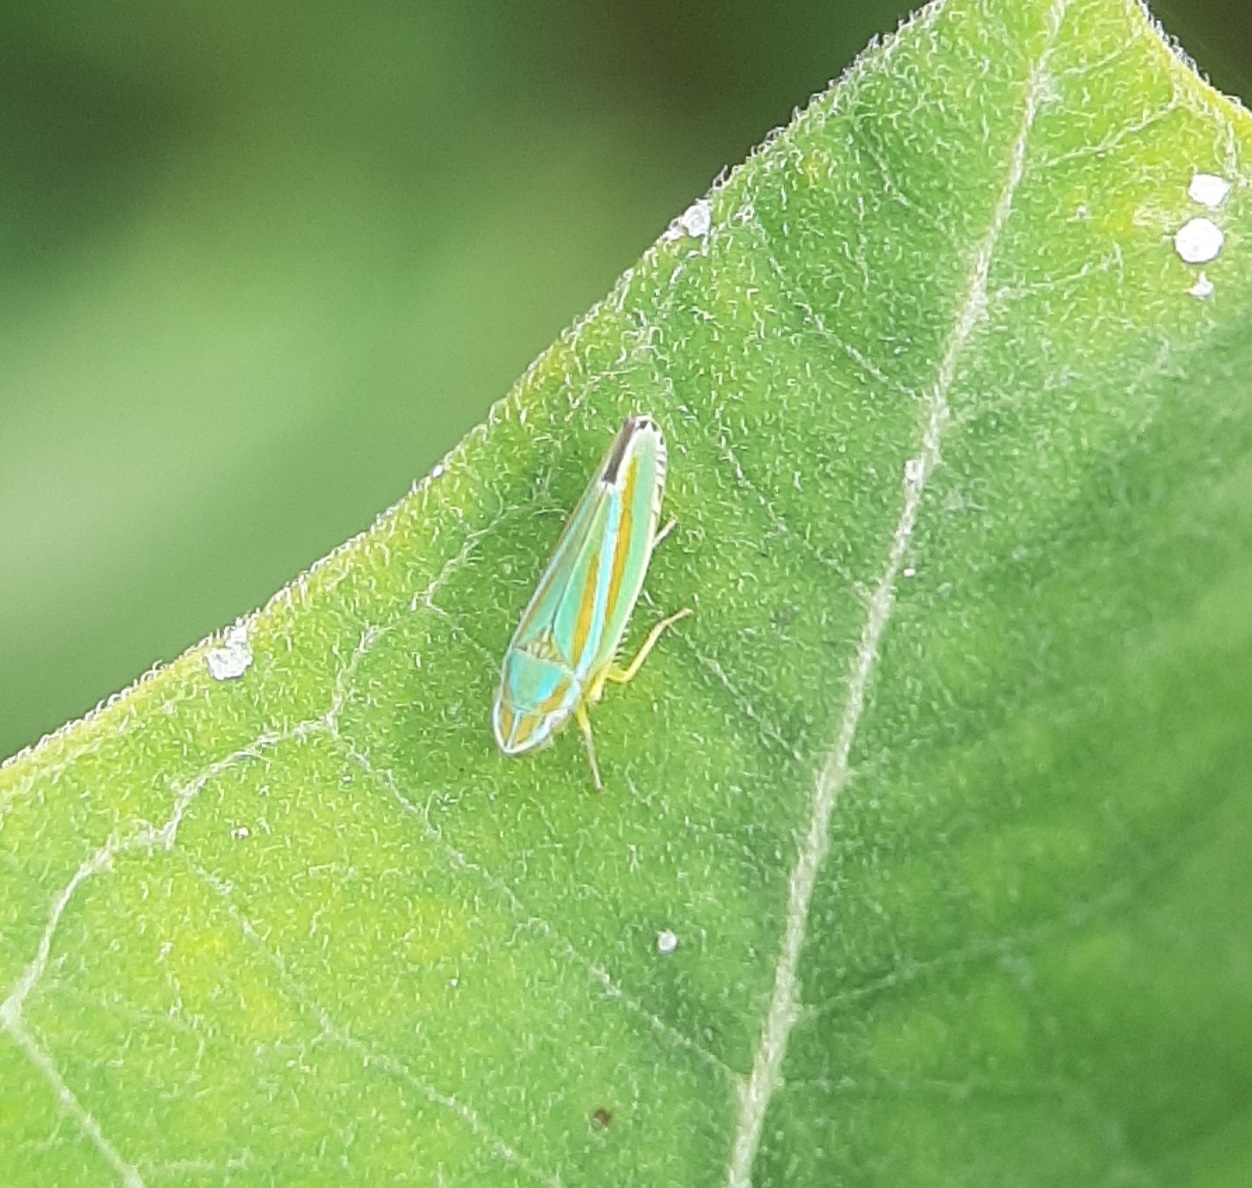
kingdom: Animalia
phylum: Arthropoda
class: Insecta
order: Hemiptera
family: Cicadellidae
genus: Graphocephala
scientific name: Graphocephala versuta
